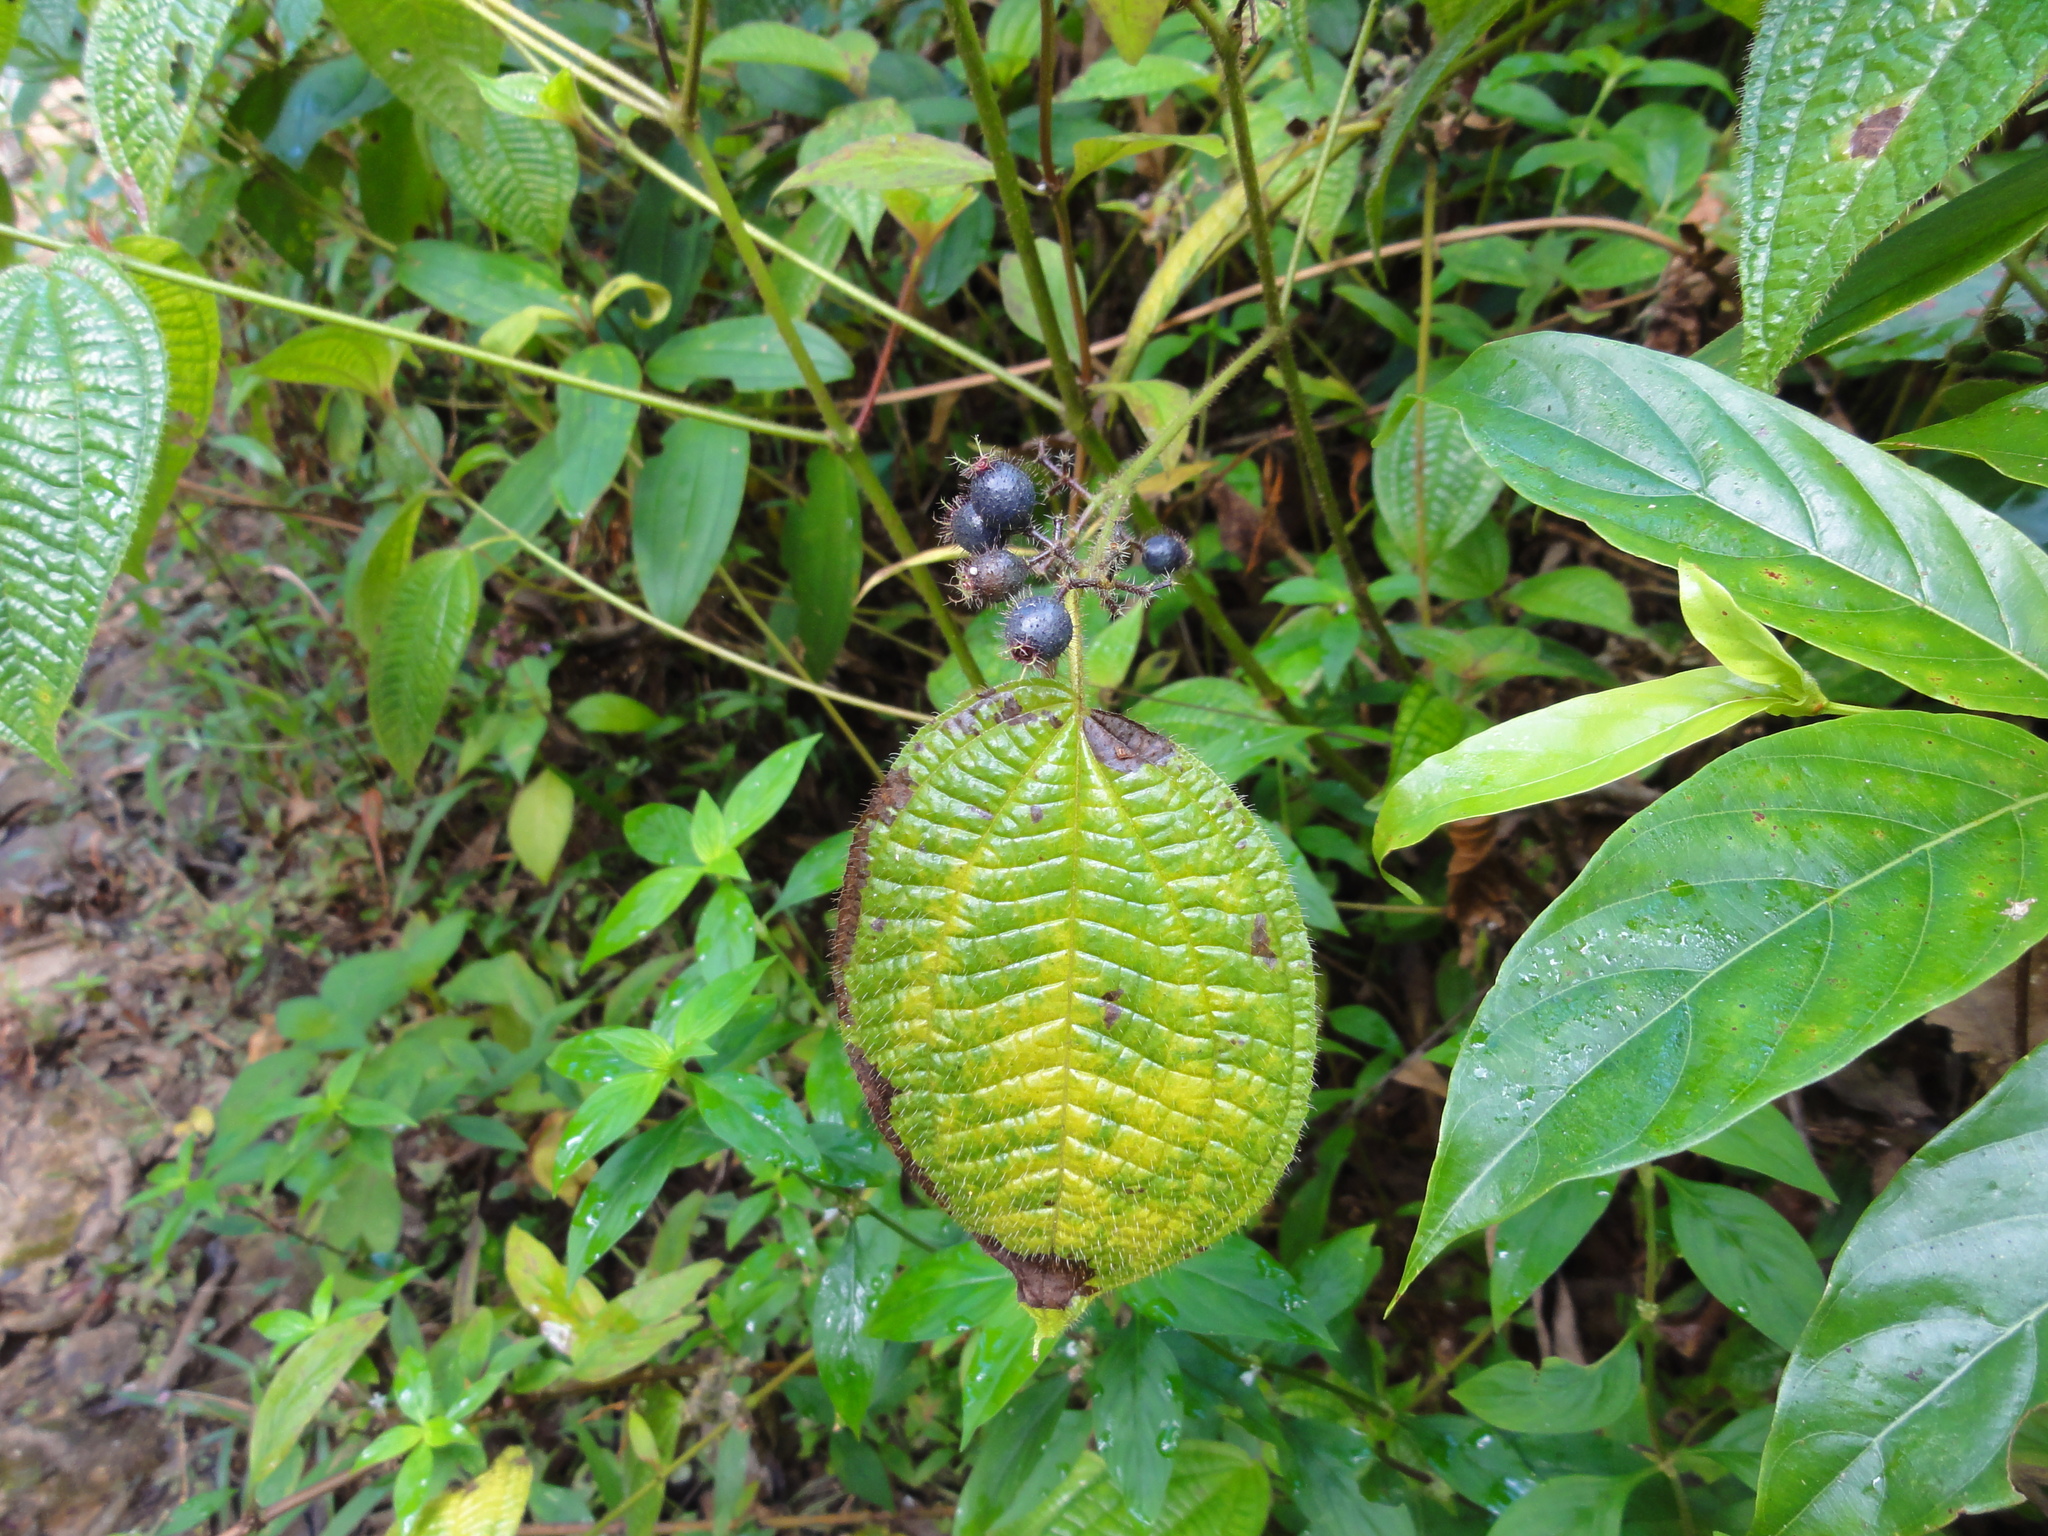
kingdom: Plantae
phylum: Tracheophyta
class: Magnoliopsida
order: Myrtales
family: Melastomataceae
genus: Miconia
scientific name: Miconia crenata
